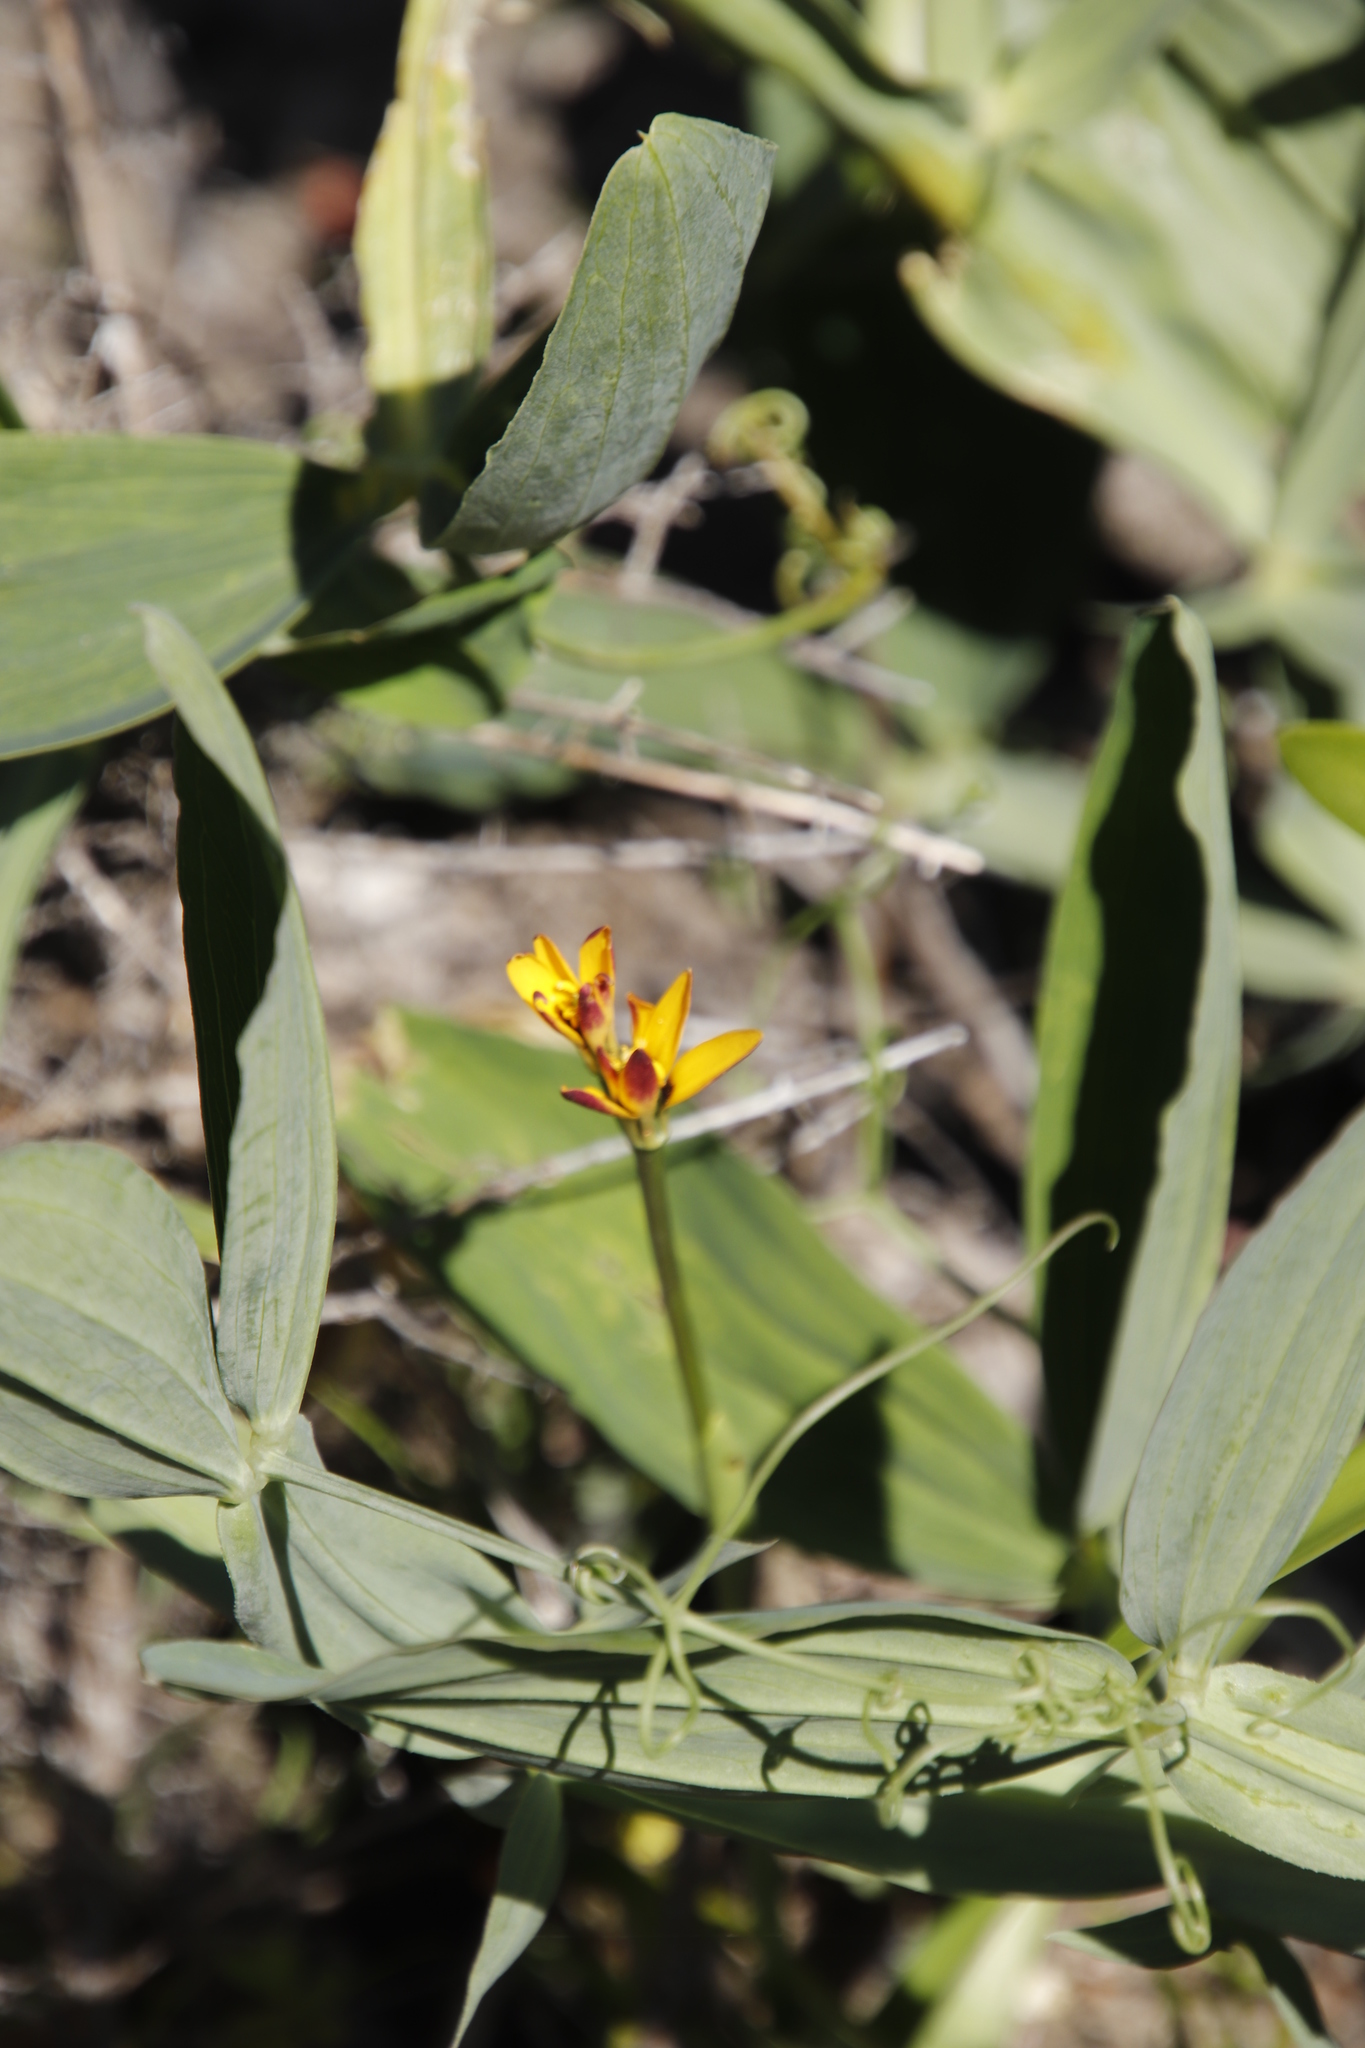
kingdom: Plantae
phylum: Tracheophyta
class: Liliopsida
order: Liliales
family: Colchicaceae
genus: Baeometra
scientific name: Baeometra uniflora
